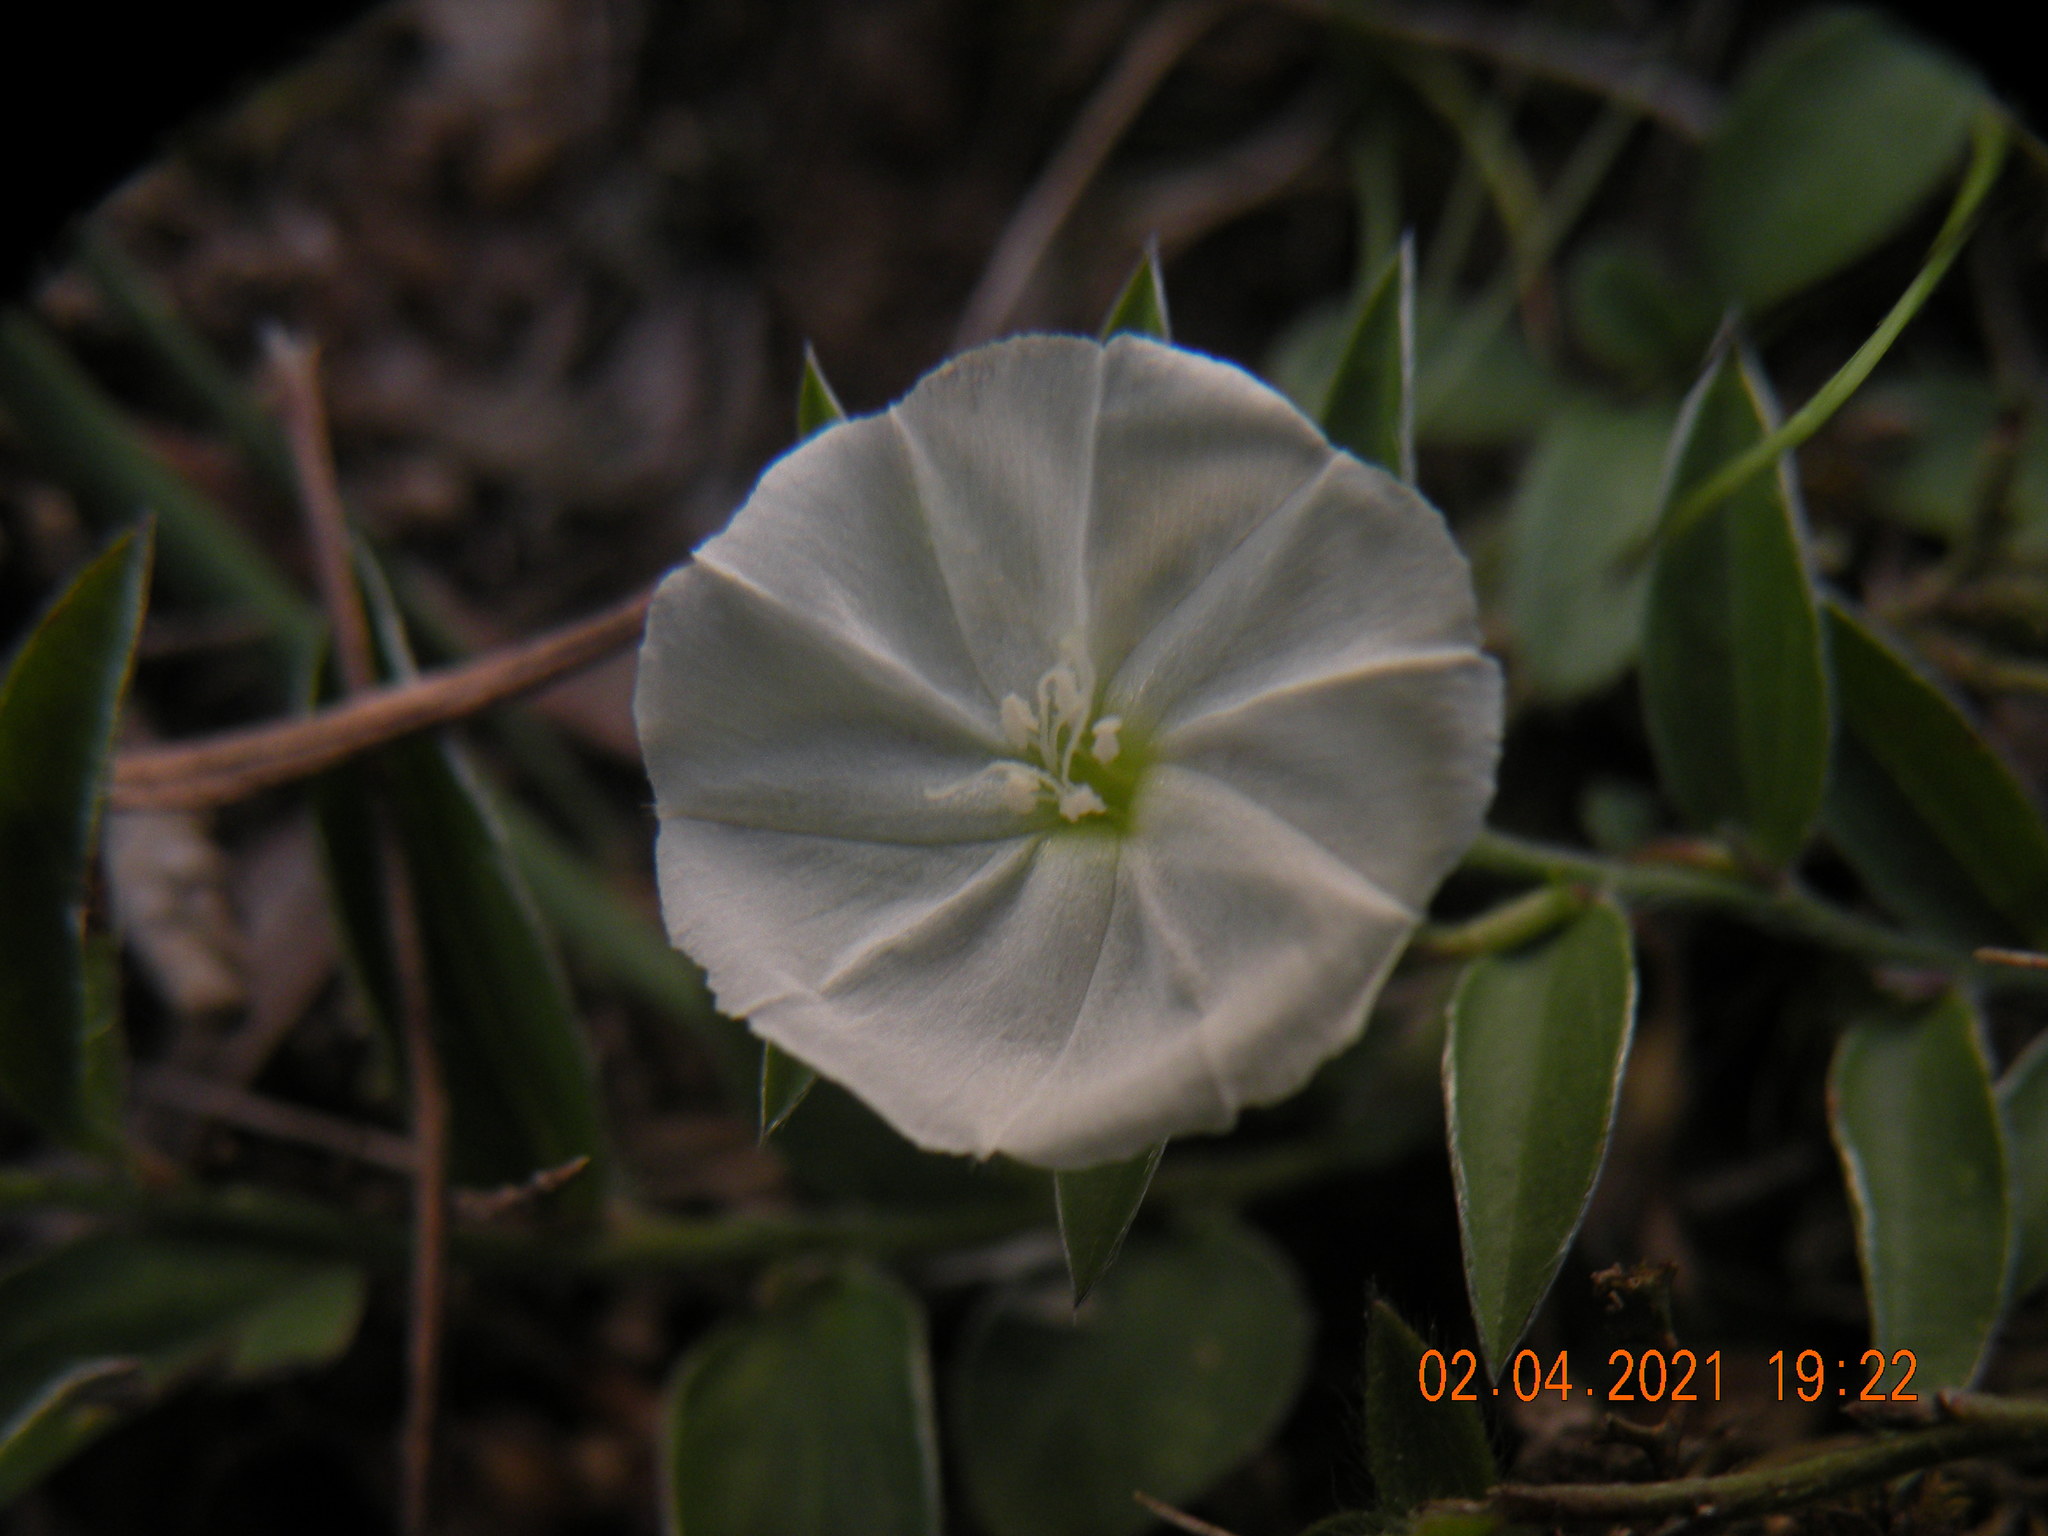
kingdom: Plantae
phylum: Tracheophyta
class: Magnoliopsida
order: Solanales
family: Convolvulaceae
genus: Evolvulus
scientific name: Evolvulus sericeus
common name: Blue dots
